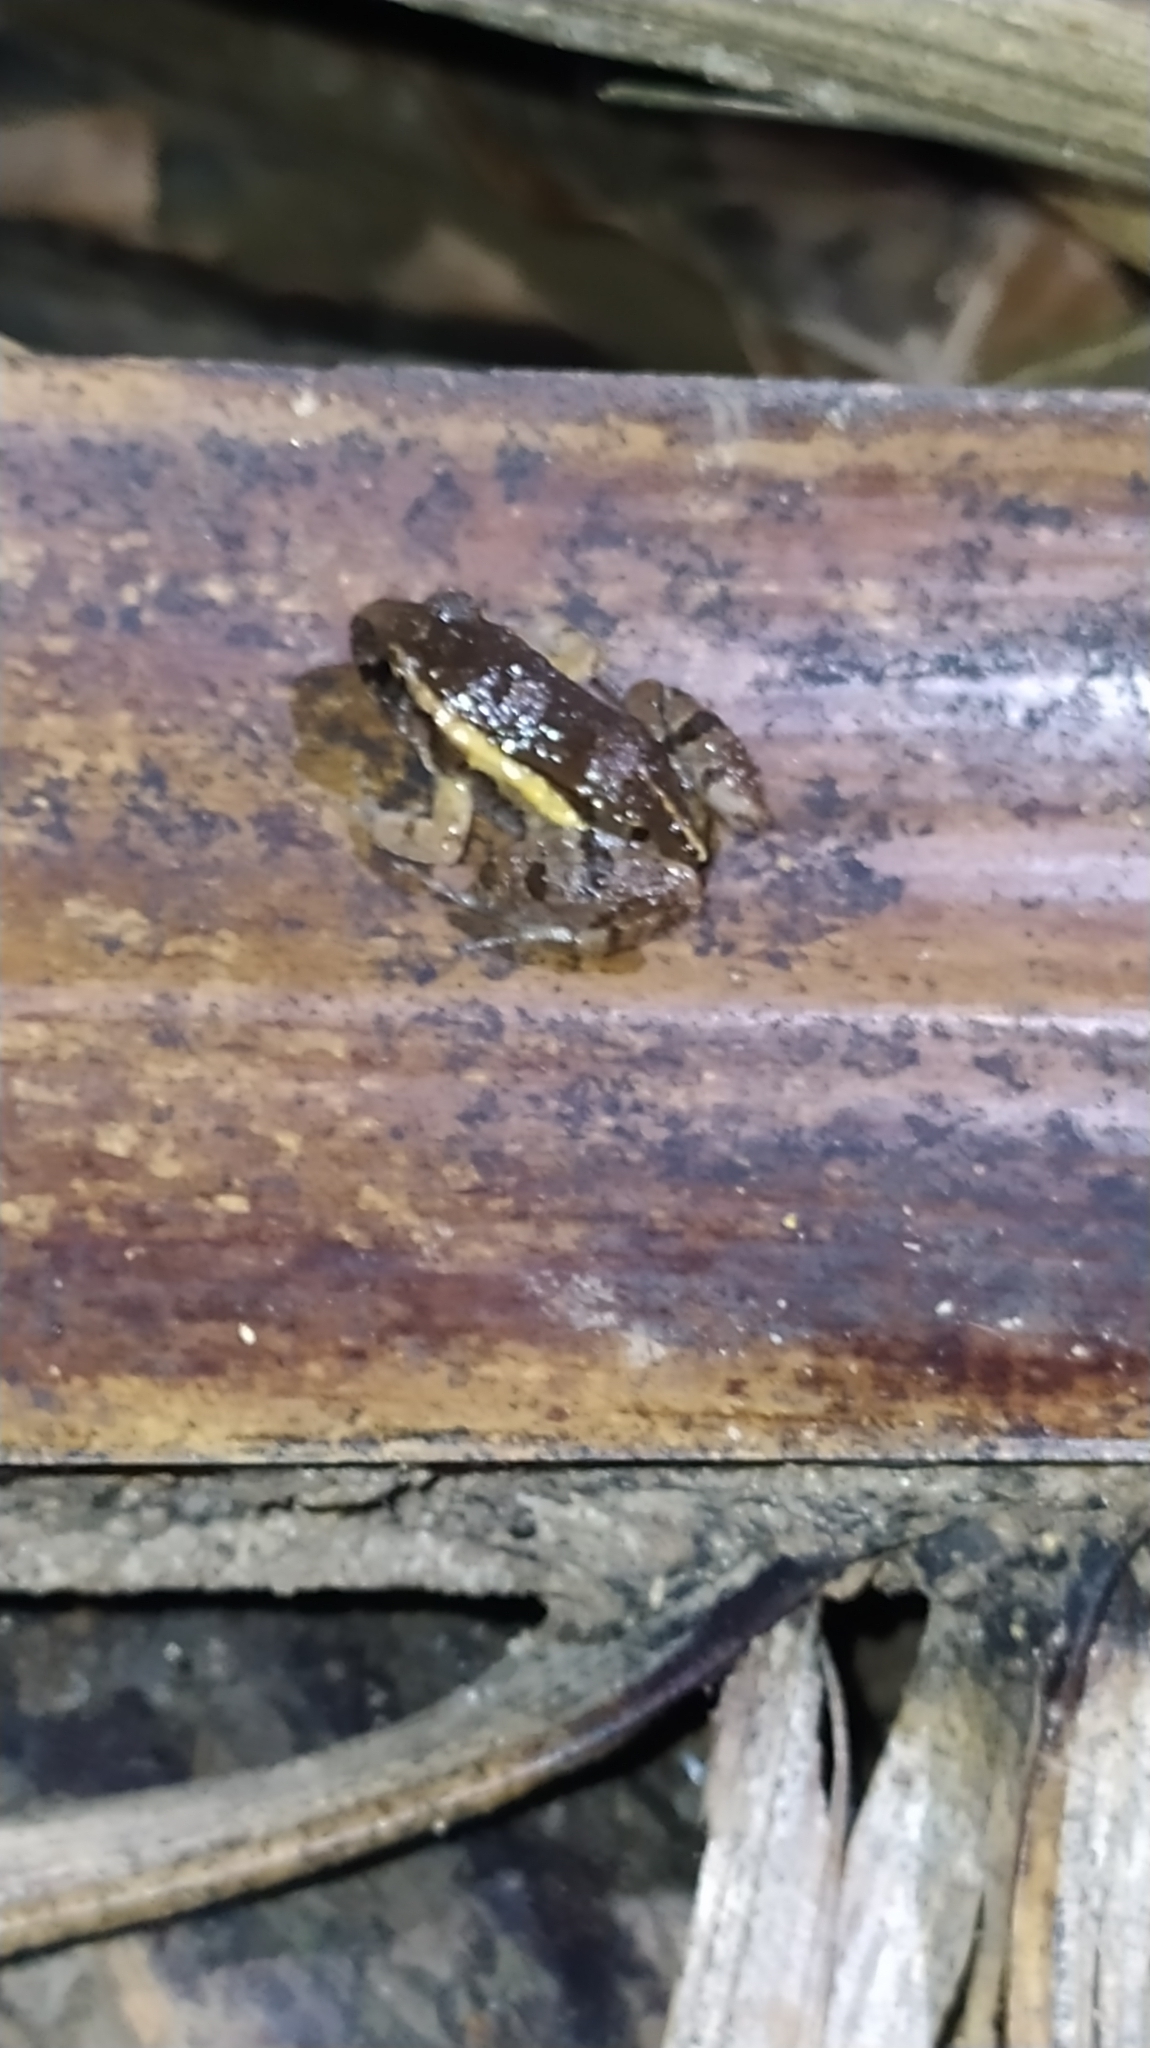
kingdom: Animalia
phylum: Chordata
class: Amphibia
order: Anura
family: Leptodactylidae
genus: Adenomera
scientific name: Adenomera andreae
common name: Lowland tropical bullfrog
